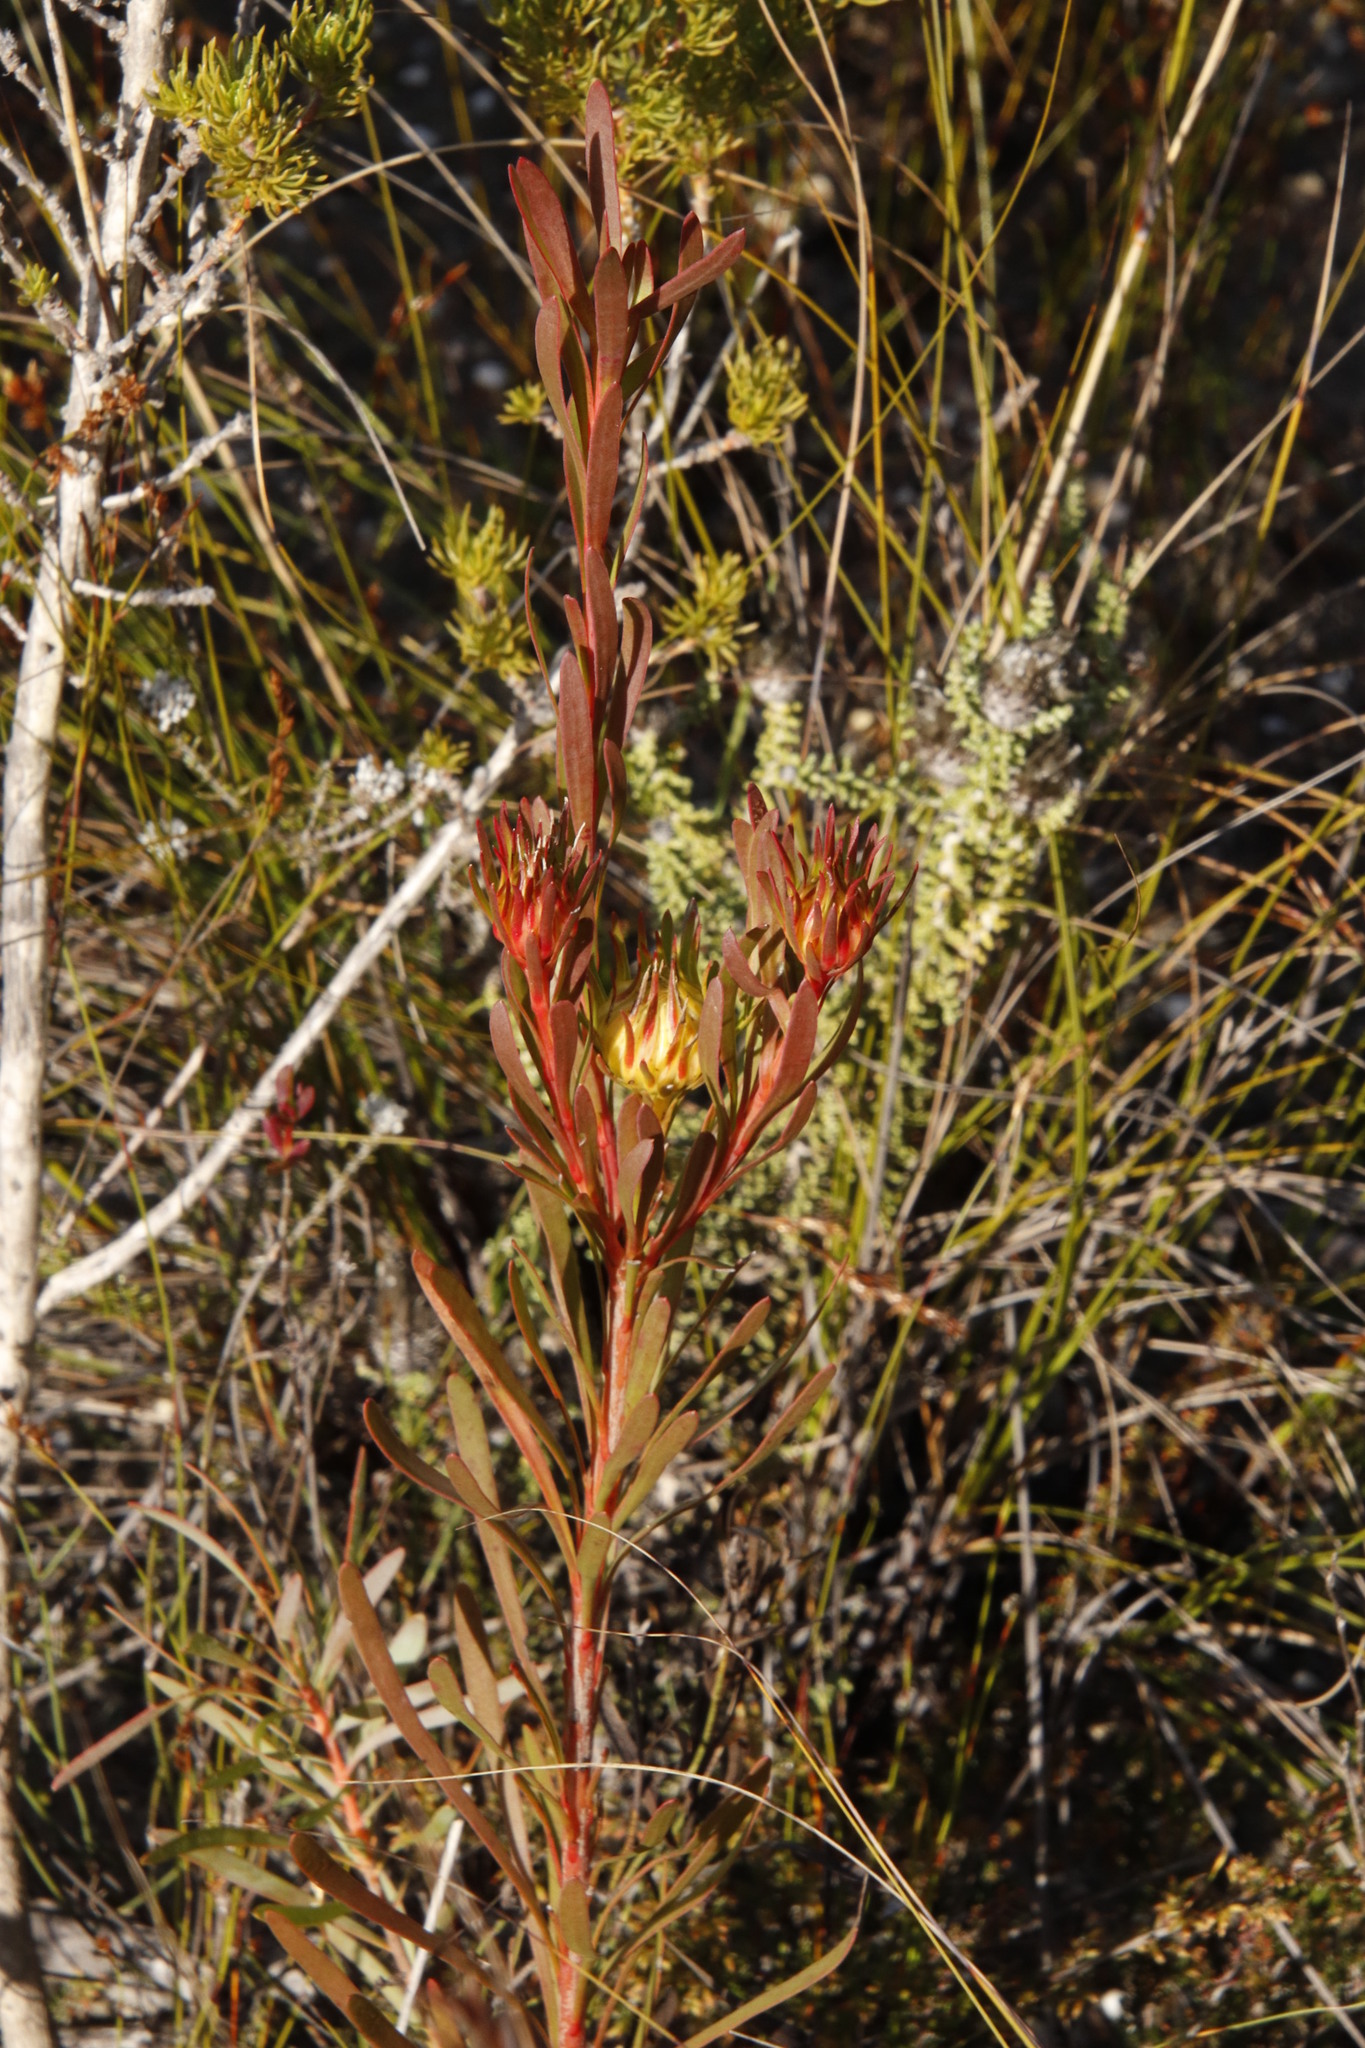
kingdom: Plantae
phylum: Tracheophyta
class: Magnoliopsida
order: Proteales
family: Proteaceae
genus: Aulax
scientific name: Aulax umbellata
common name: Broad-leaf featherbush
